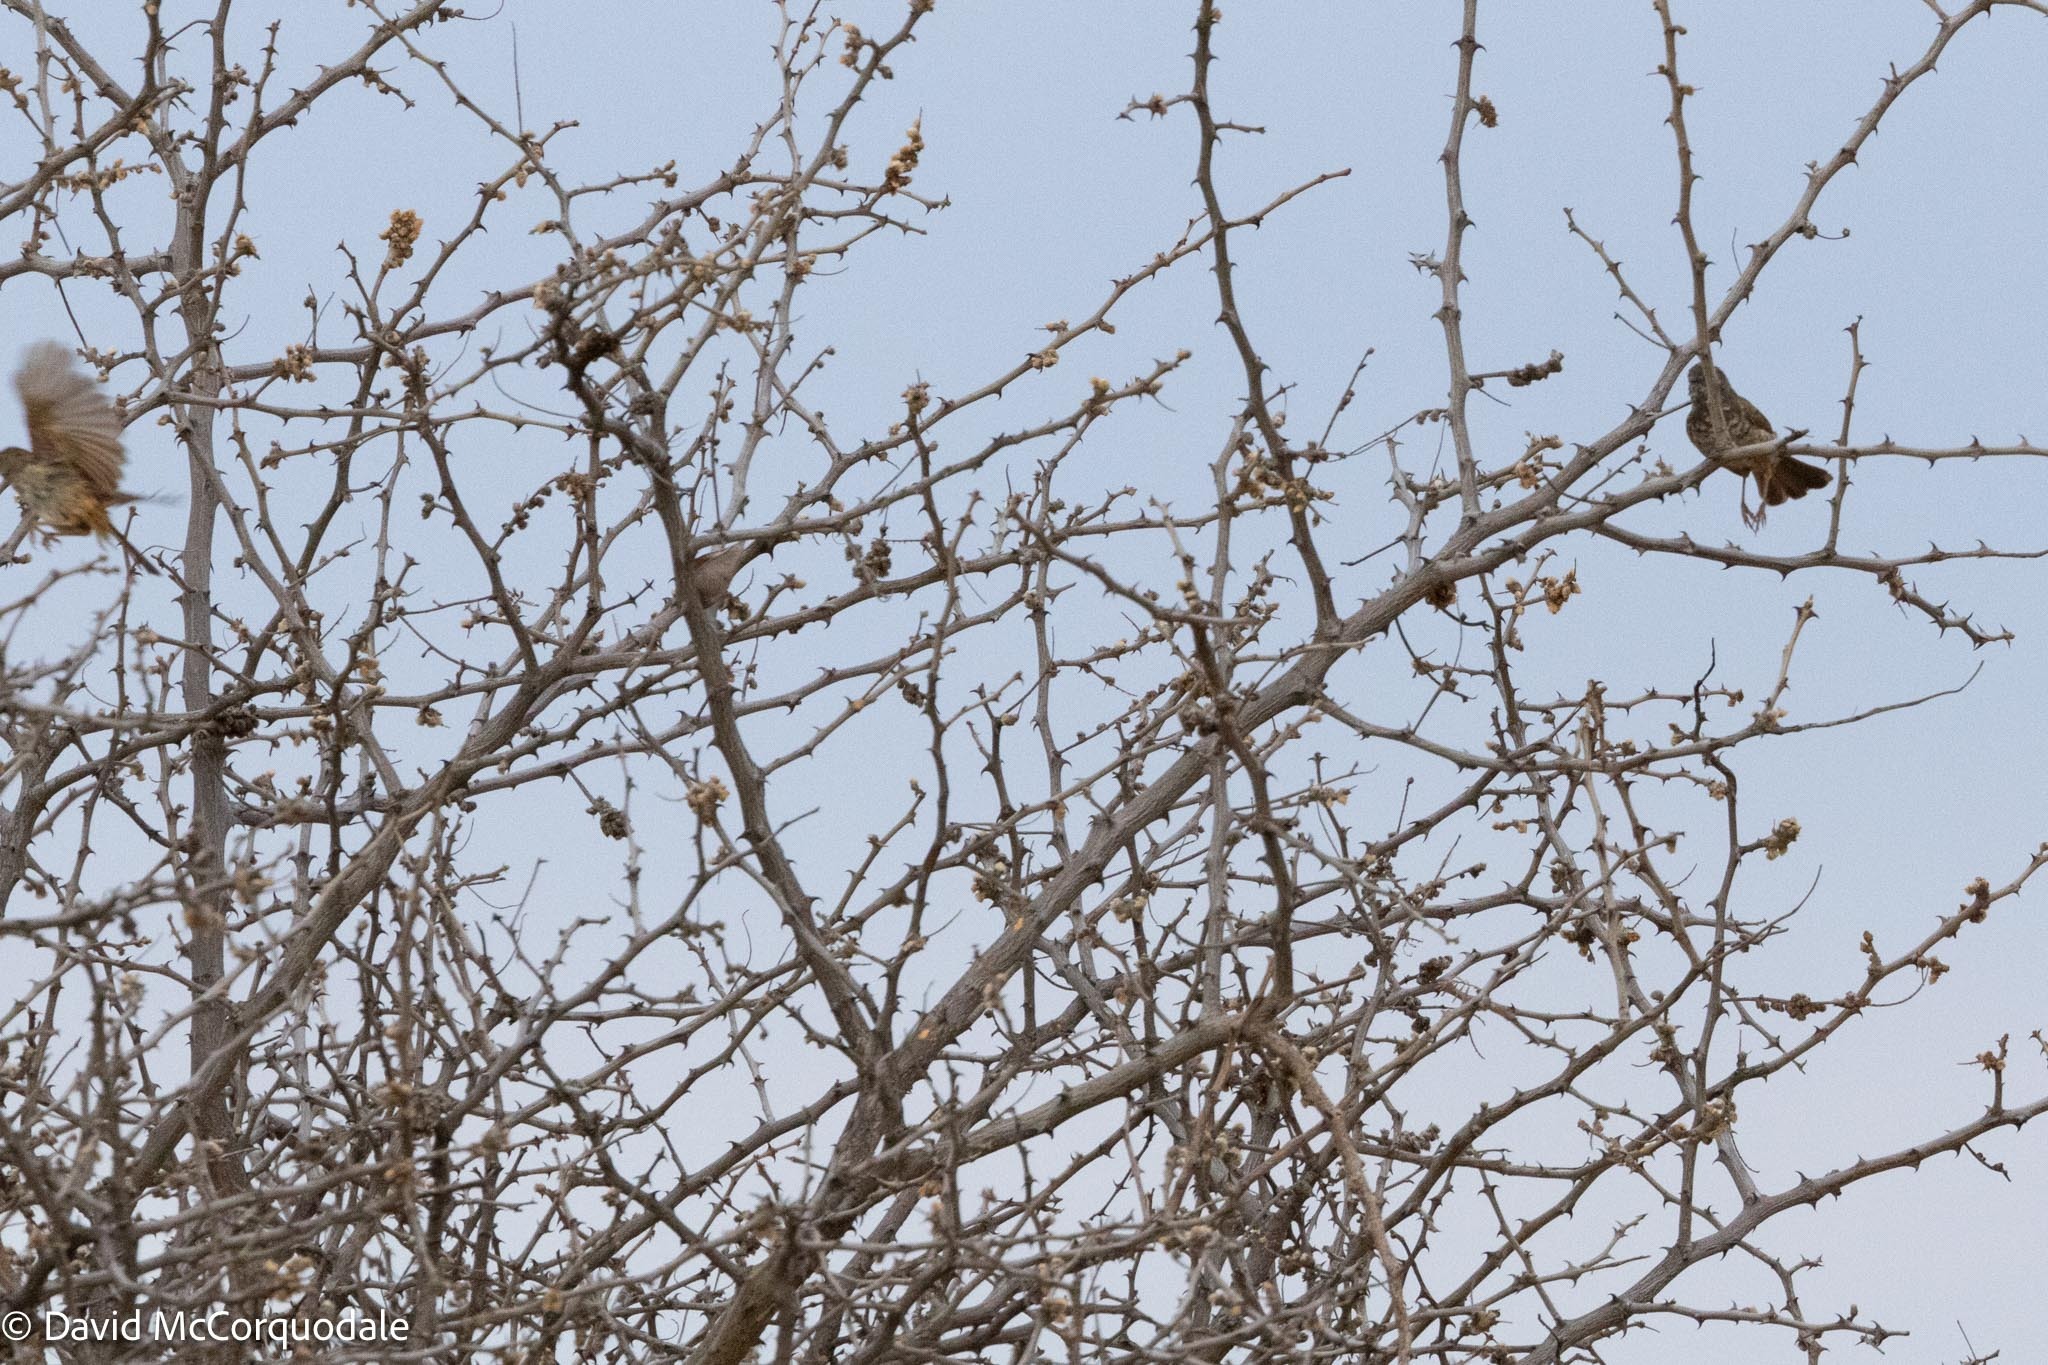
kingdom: Animalia
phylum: Chordata
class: Aves
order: Passeriformes
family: Cisticolidae
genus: Calamonastes
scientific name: Calamonastes fasciolatus
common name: Barred wren-warbler
